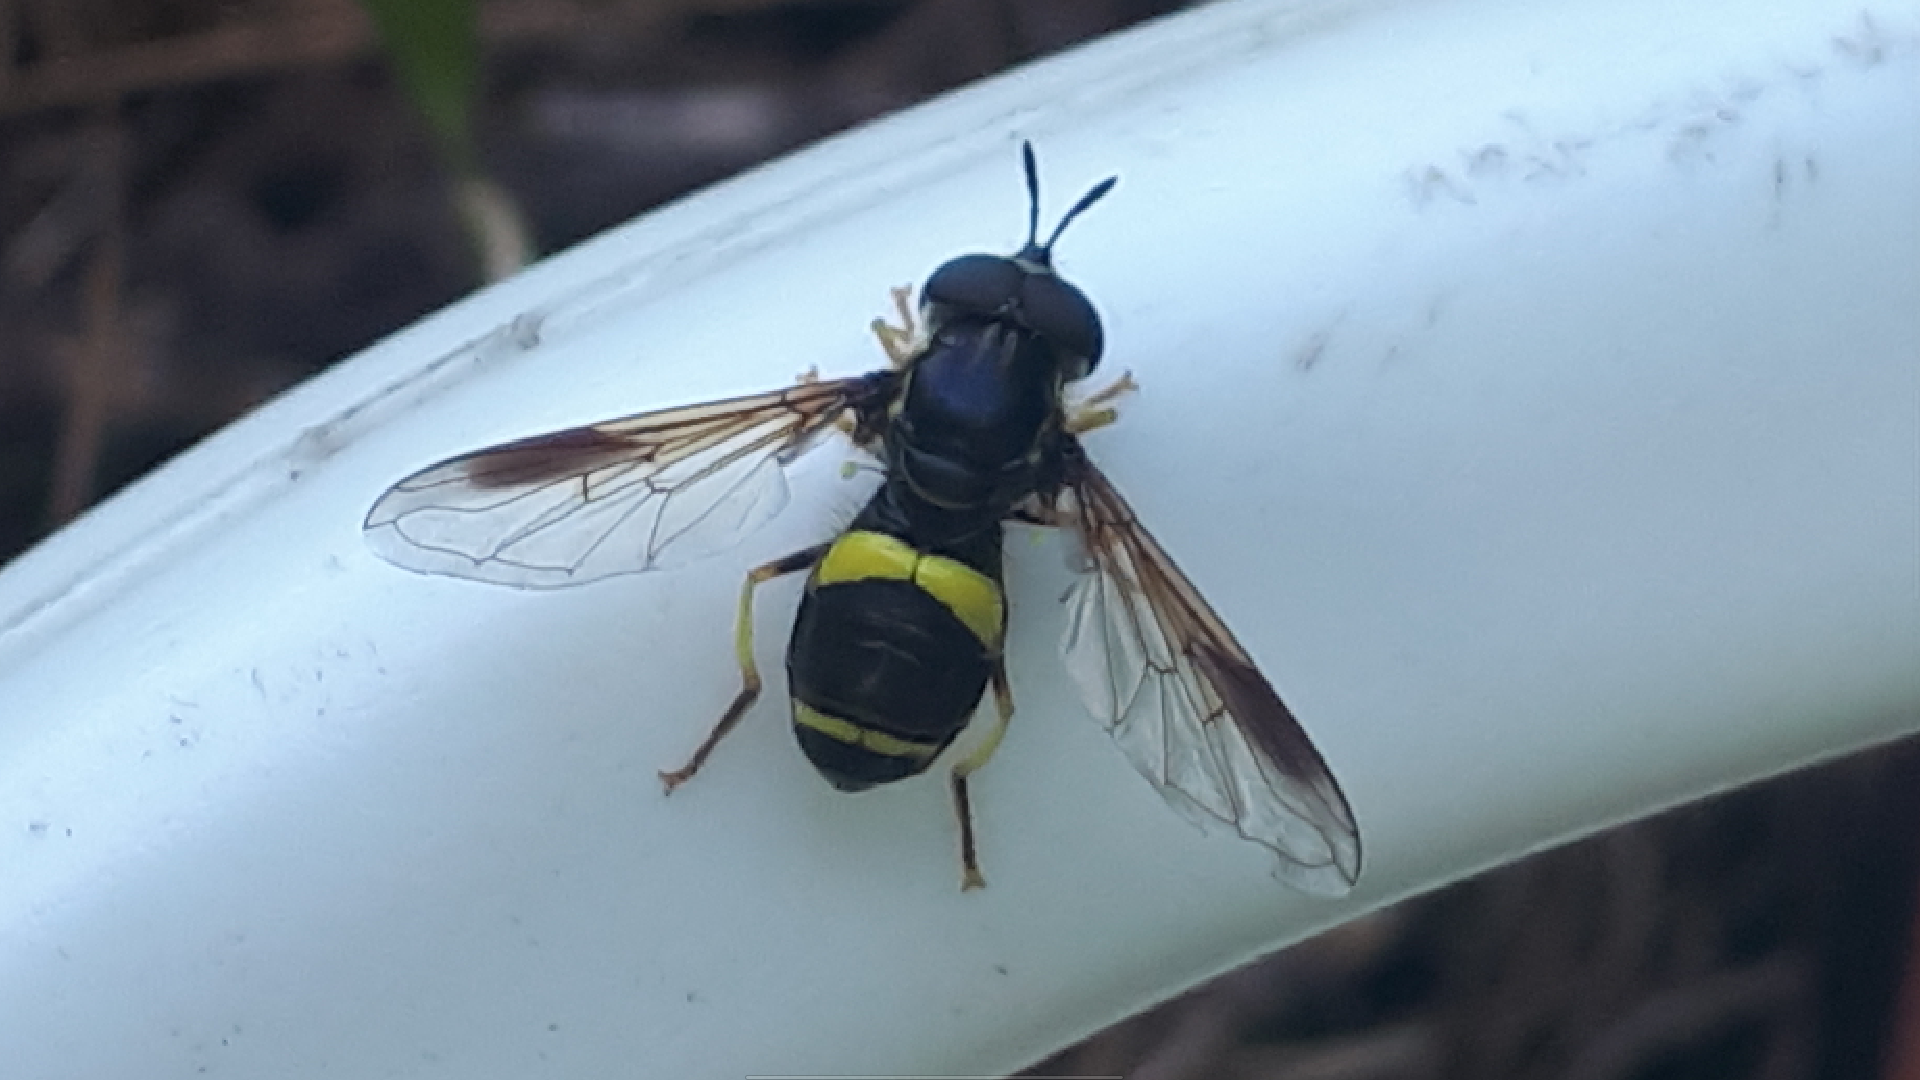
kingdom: Animalia
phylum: Arthropoda
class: Insecta
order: Diptera
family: Syrphidae
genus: Chrysotoxum
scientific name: Chrysotoxum bicincta
